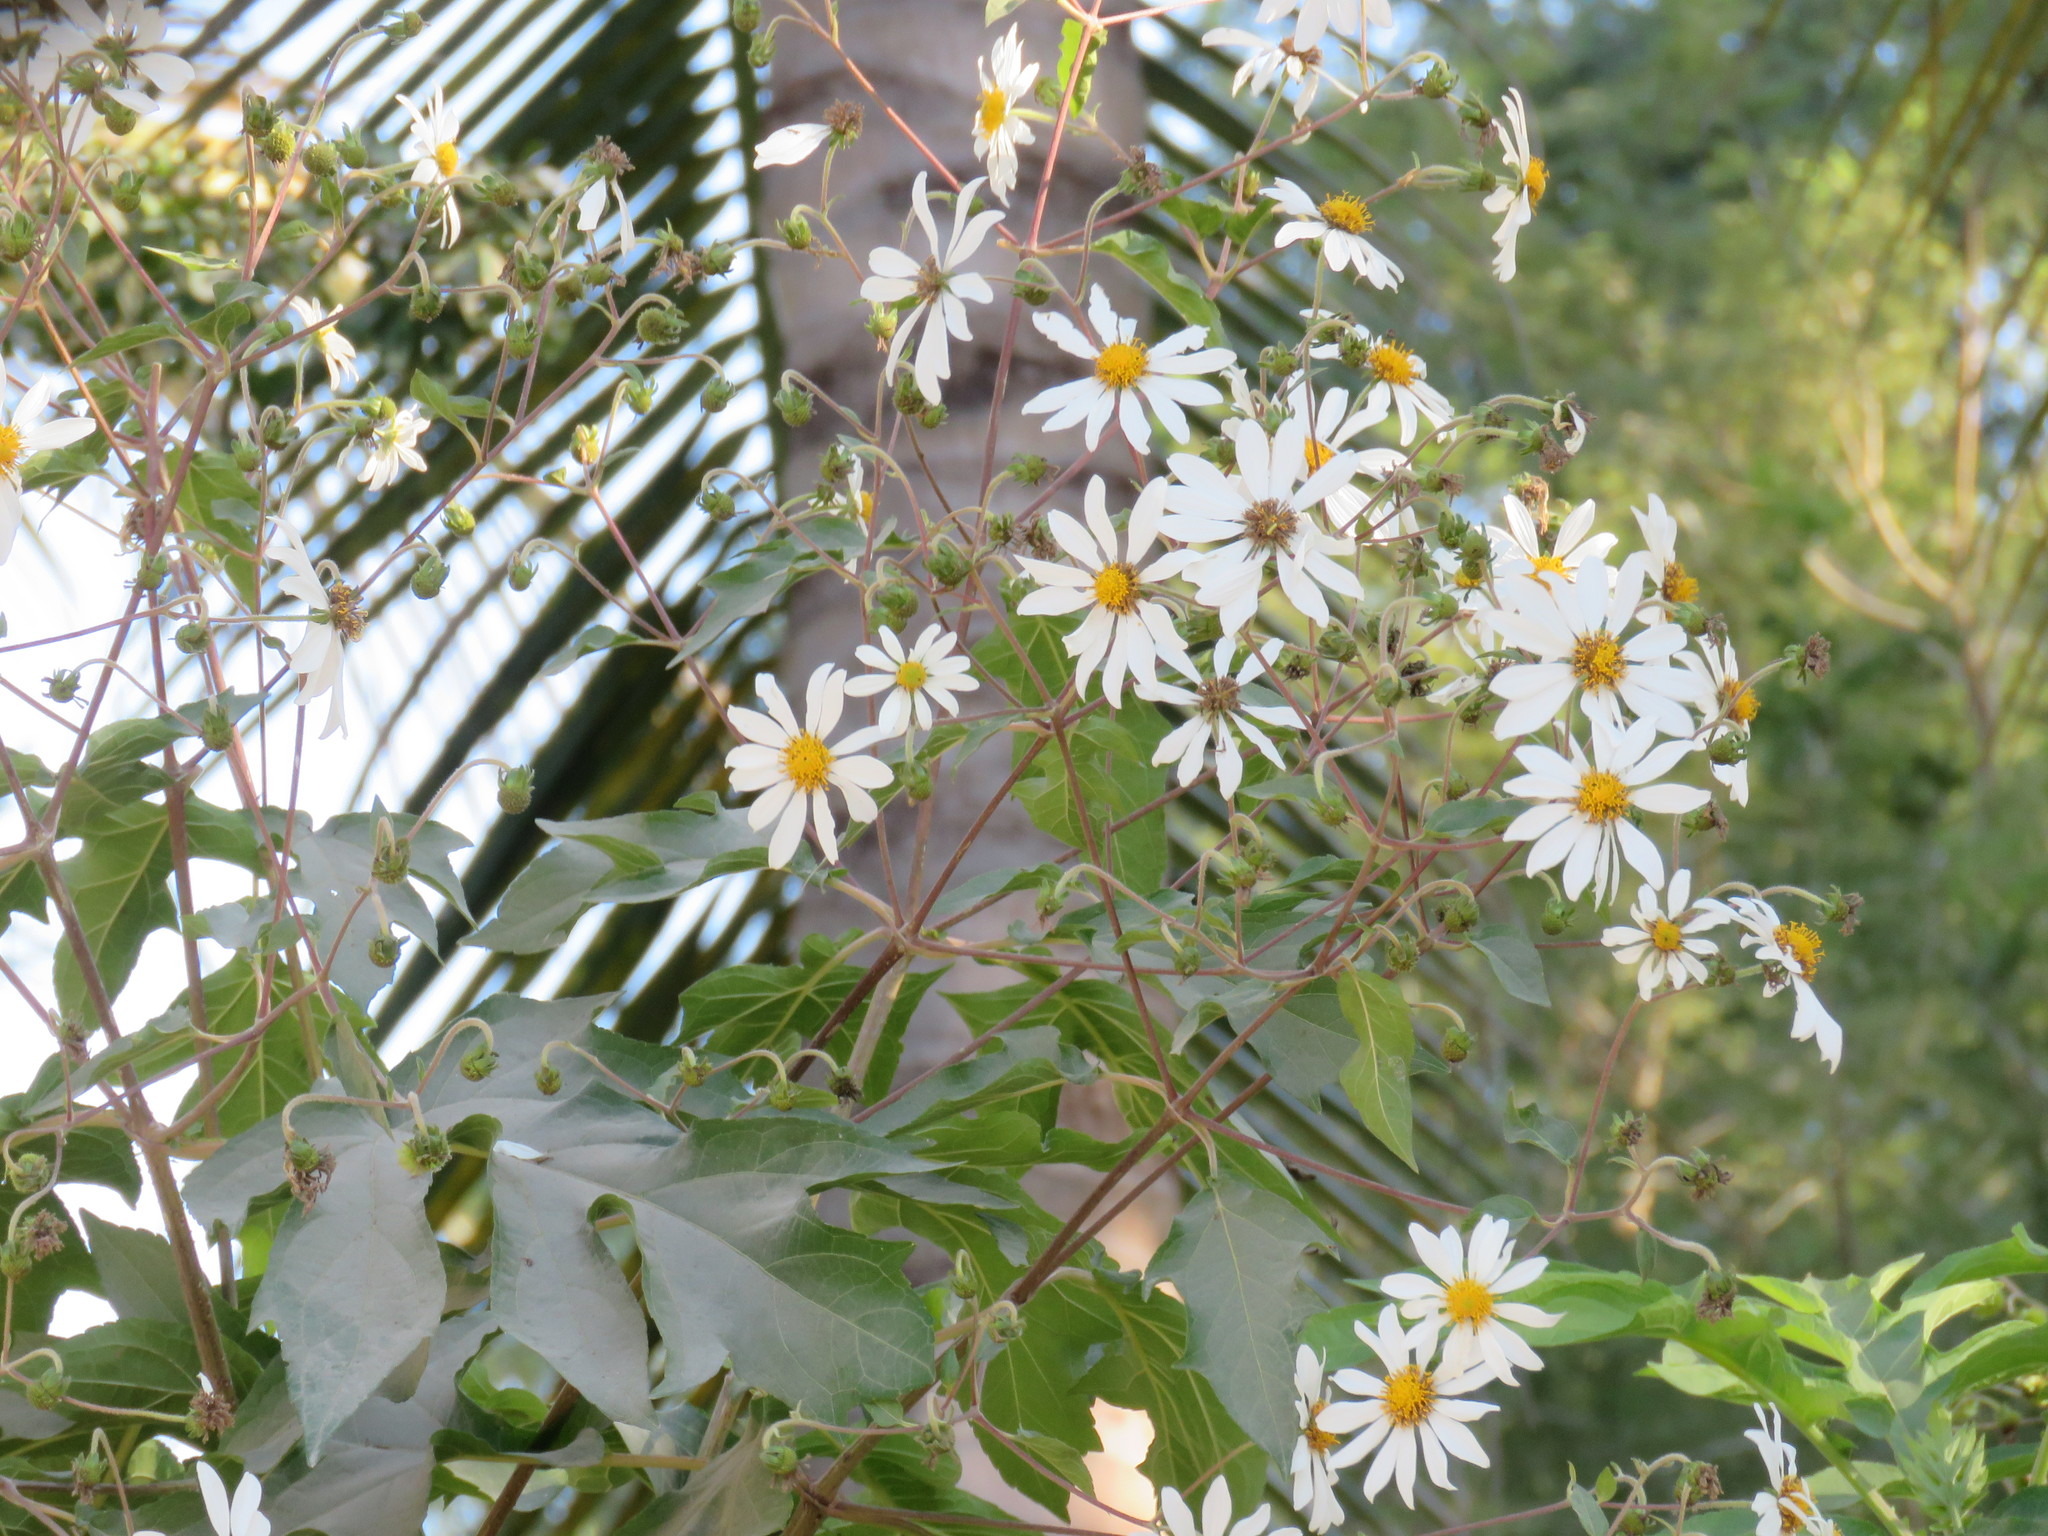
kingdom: Plantae
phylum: Tracheophyta
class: Magnoliopsida
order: Asterales
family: Asteraceae
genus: Montanoa
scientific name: Montanoa bipinnatifida
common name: Mexican daisy bush
